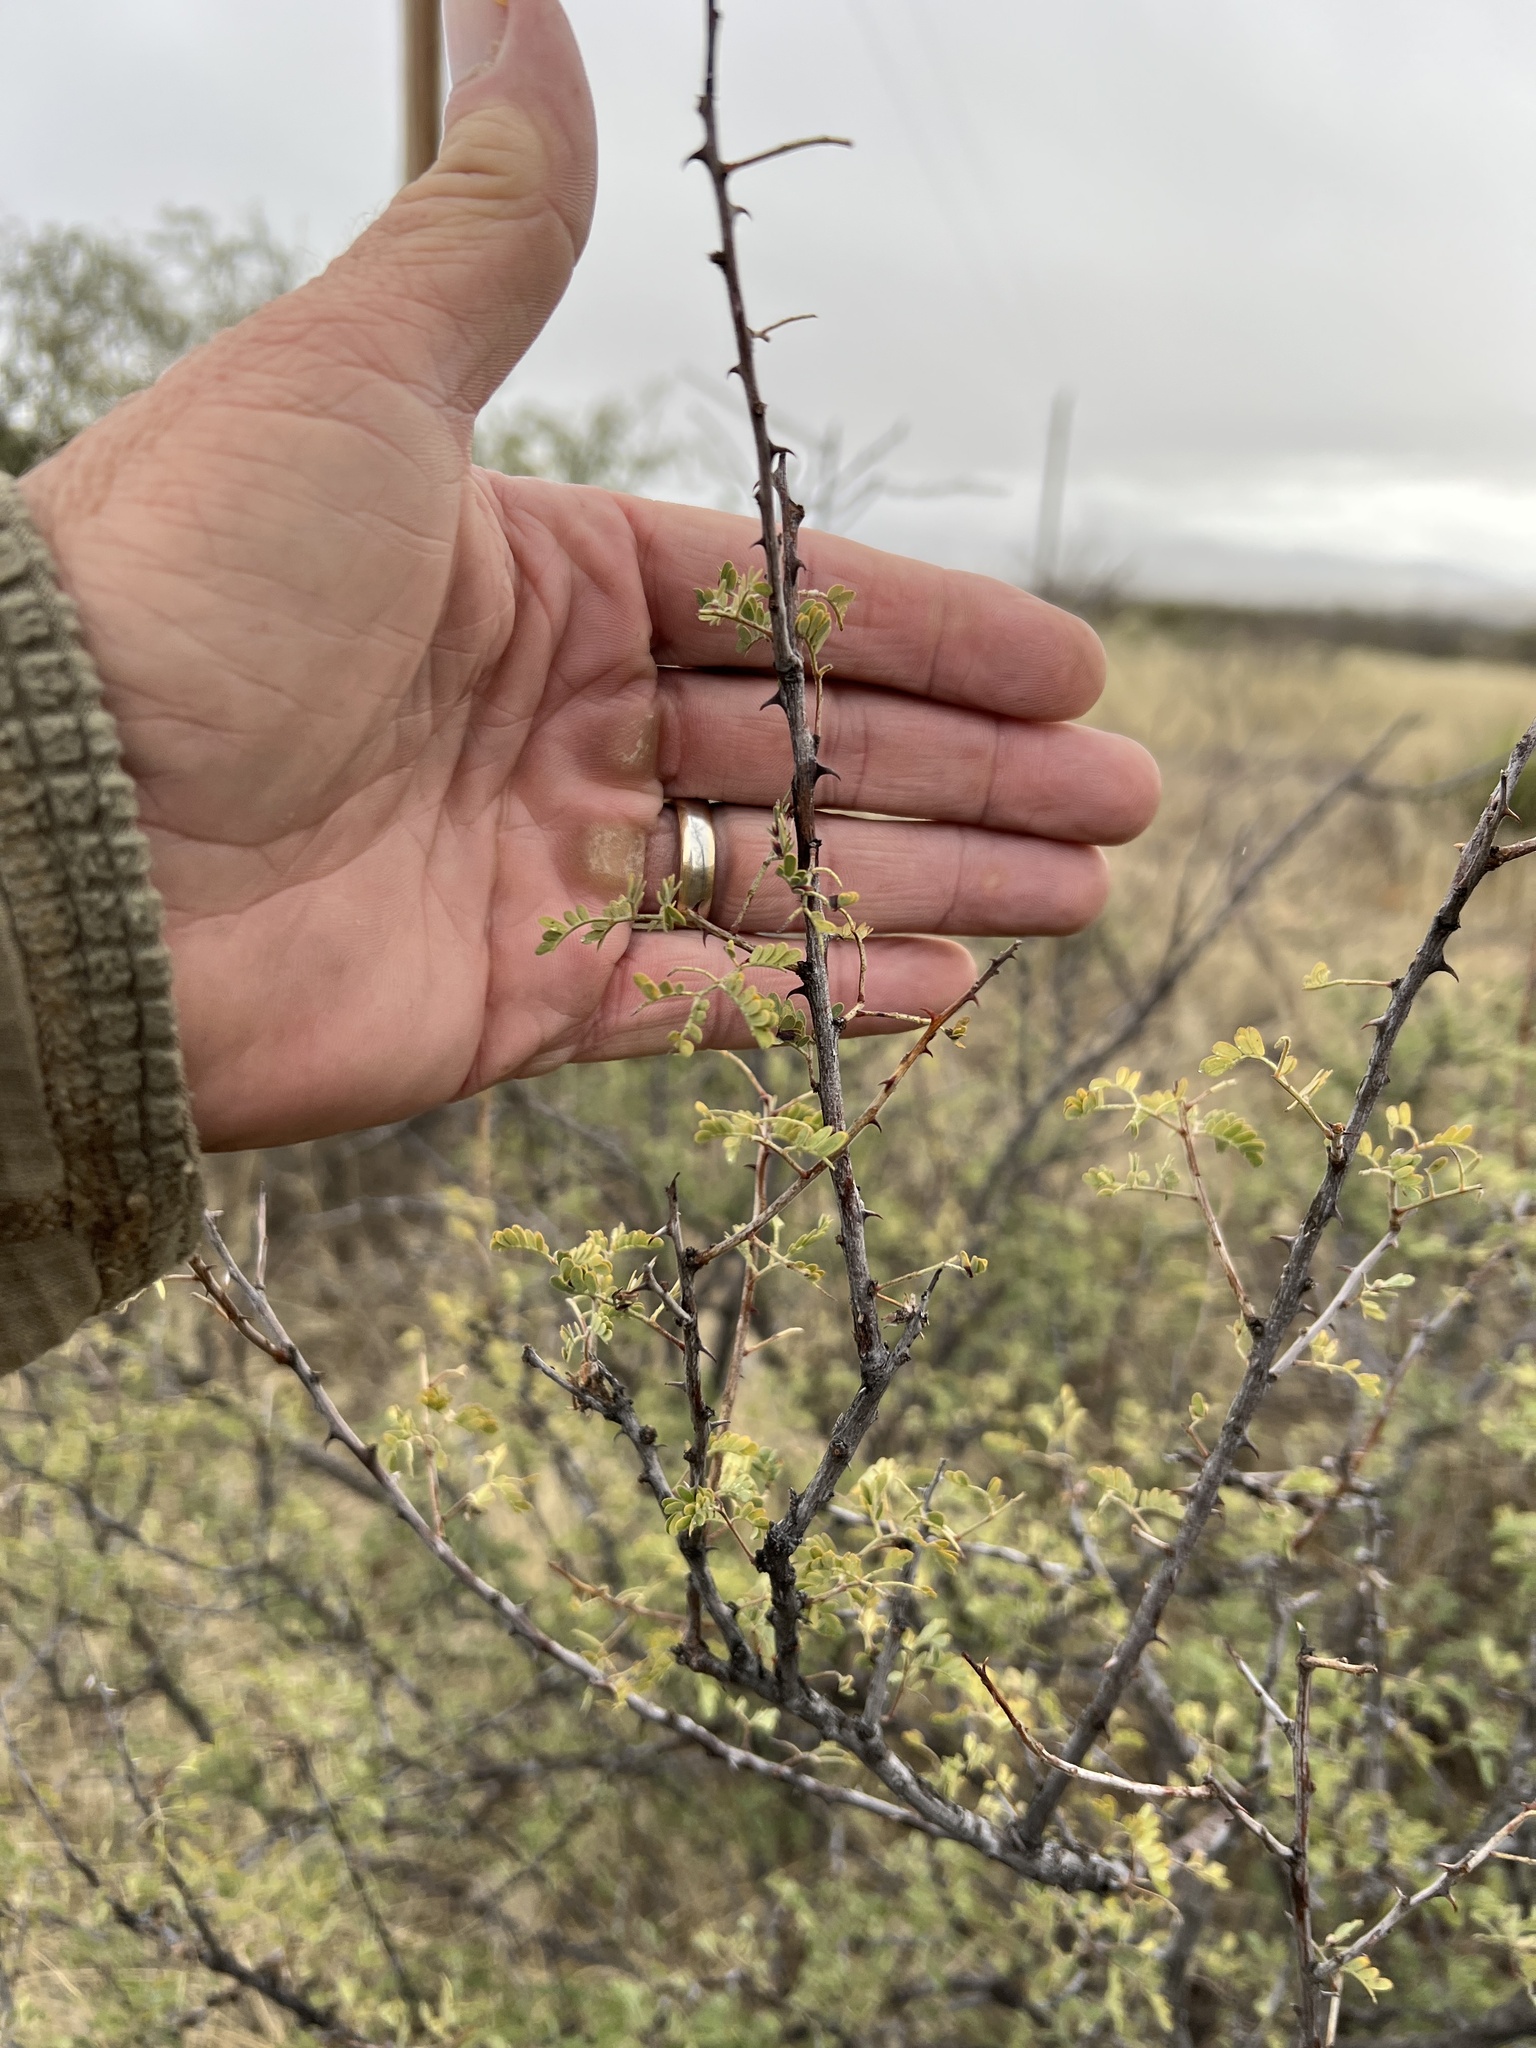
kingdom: Plantae
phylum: Tracheophyta
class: Magnoliopsida
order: Fabales
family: Fabaceae
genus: Senegalia
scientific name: Senegalia greggii
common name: Texas-mimosa
